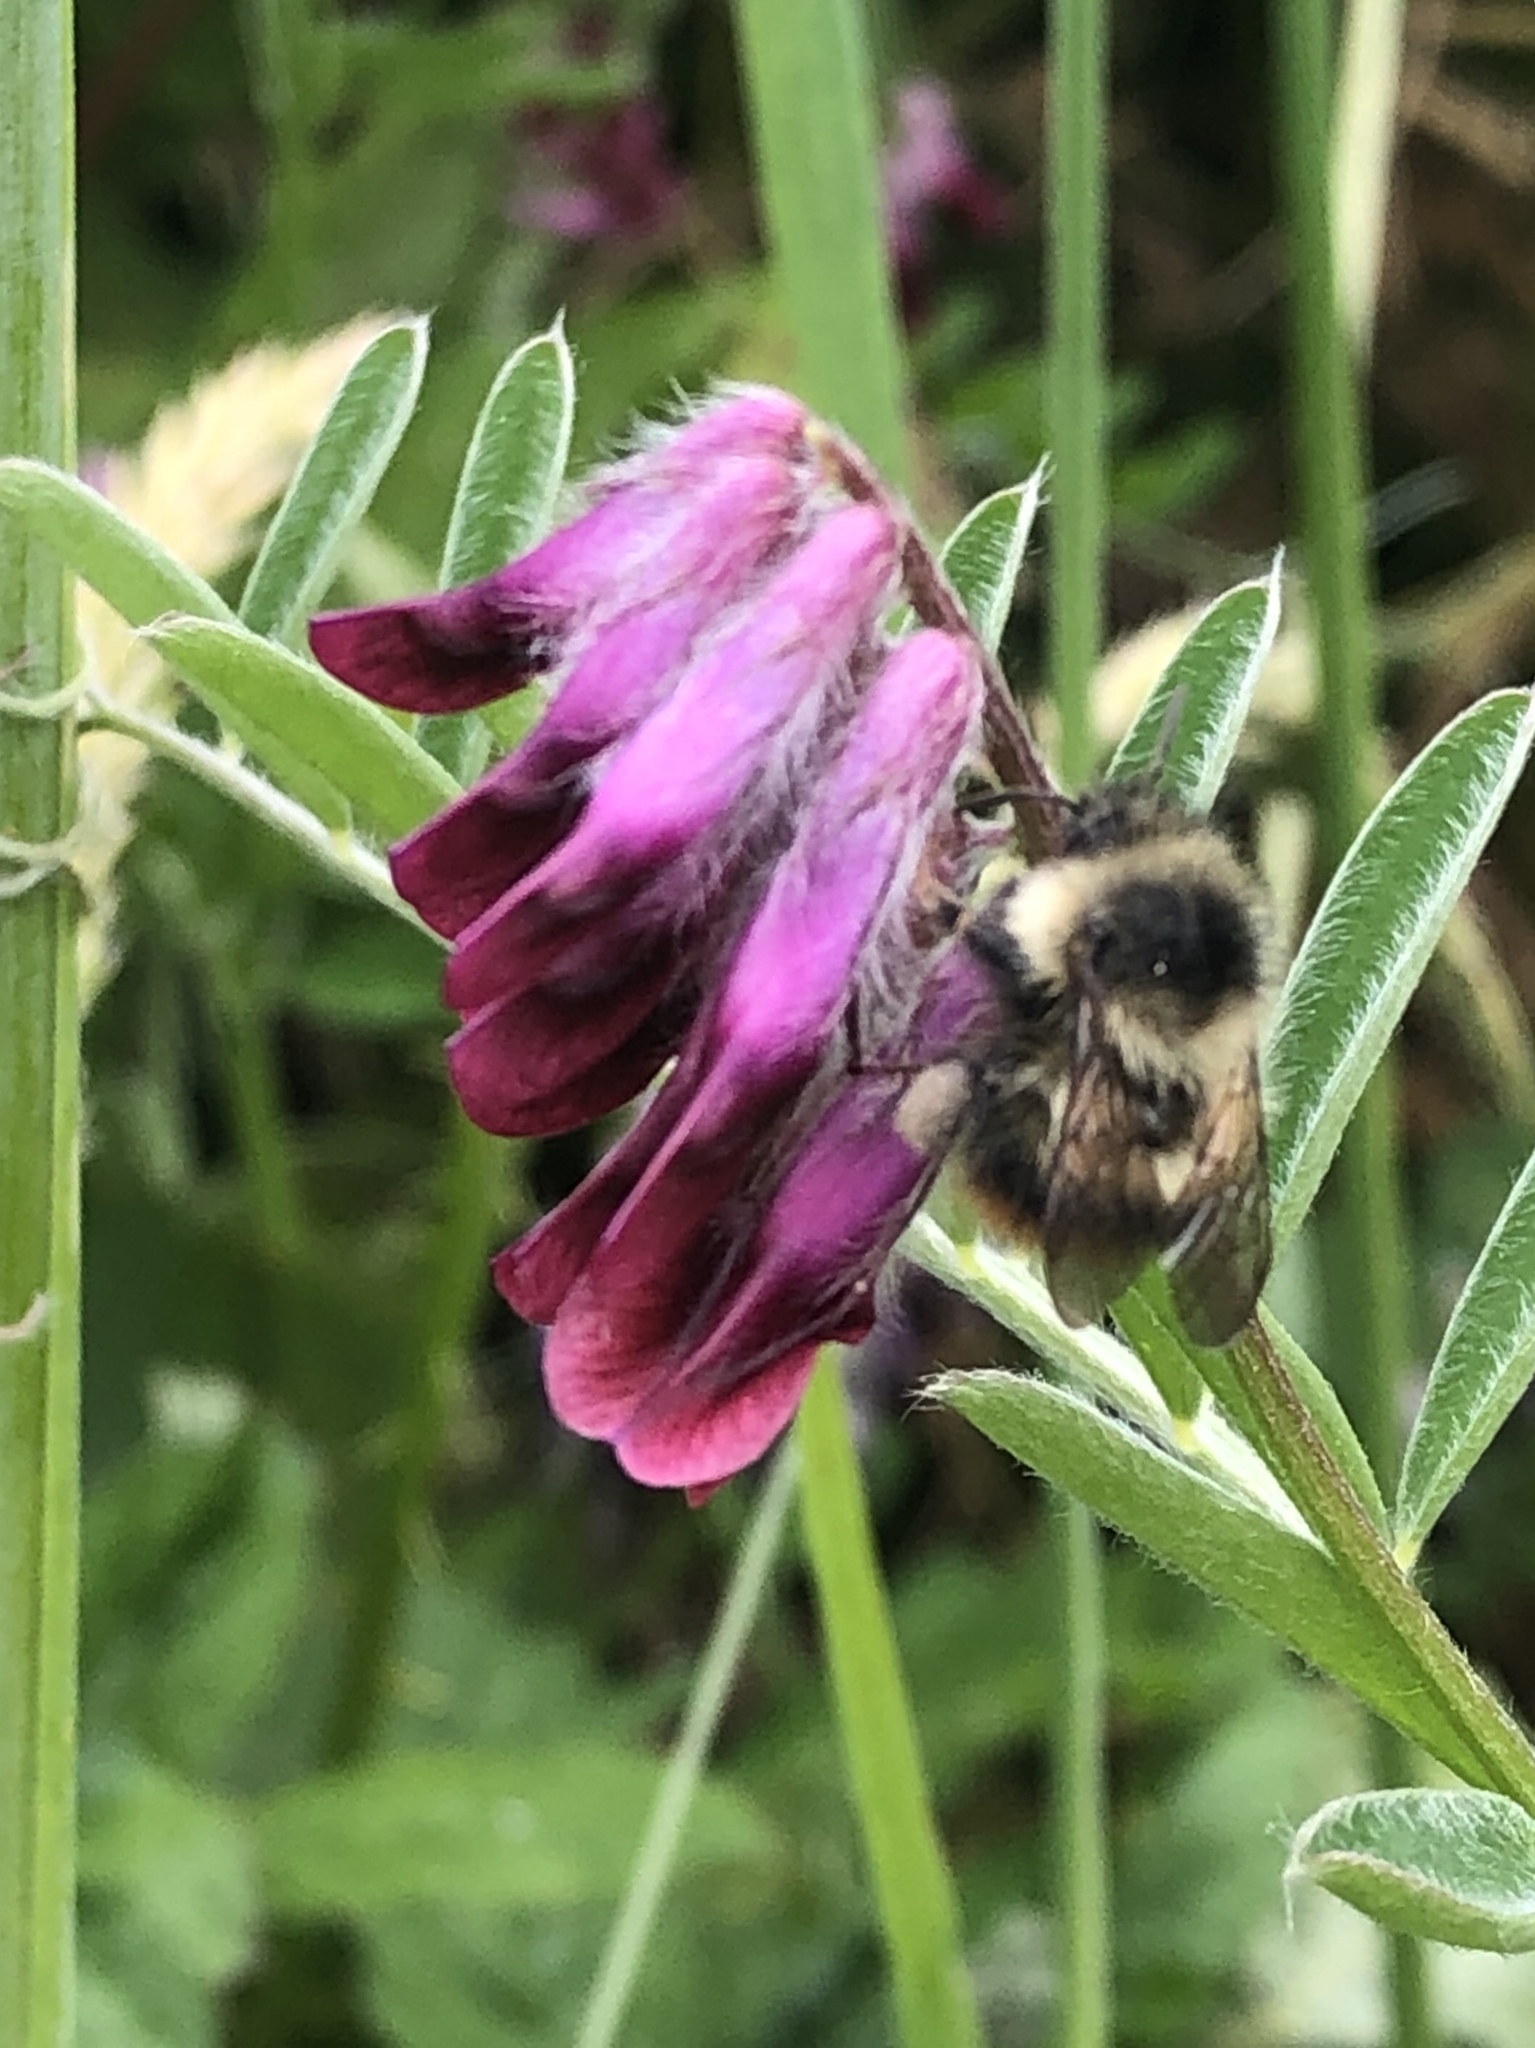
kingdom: Animalia
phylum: Arthropoda
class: Insecta
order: Hymenoptera
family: Apidae
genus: Bombus
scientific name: Bombus mixtus
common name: Fuzzy-horned bumble bee
